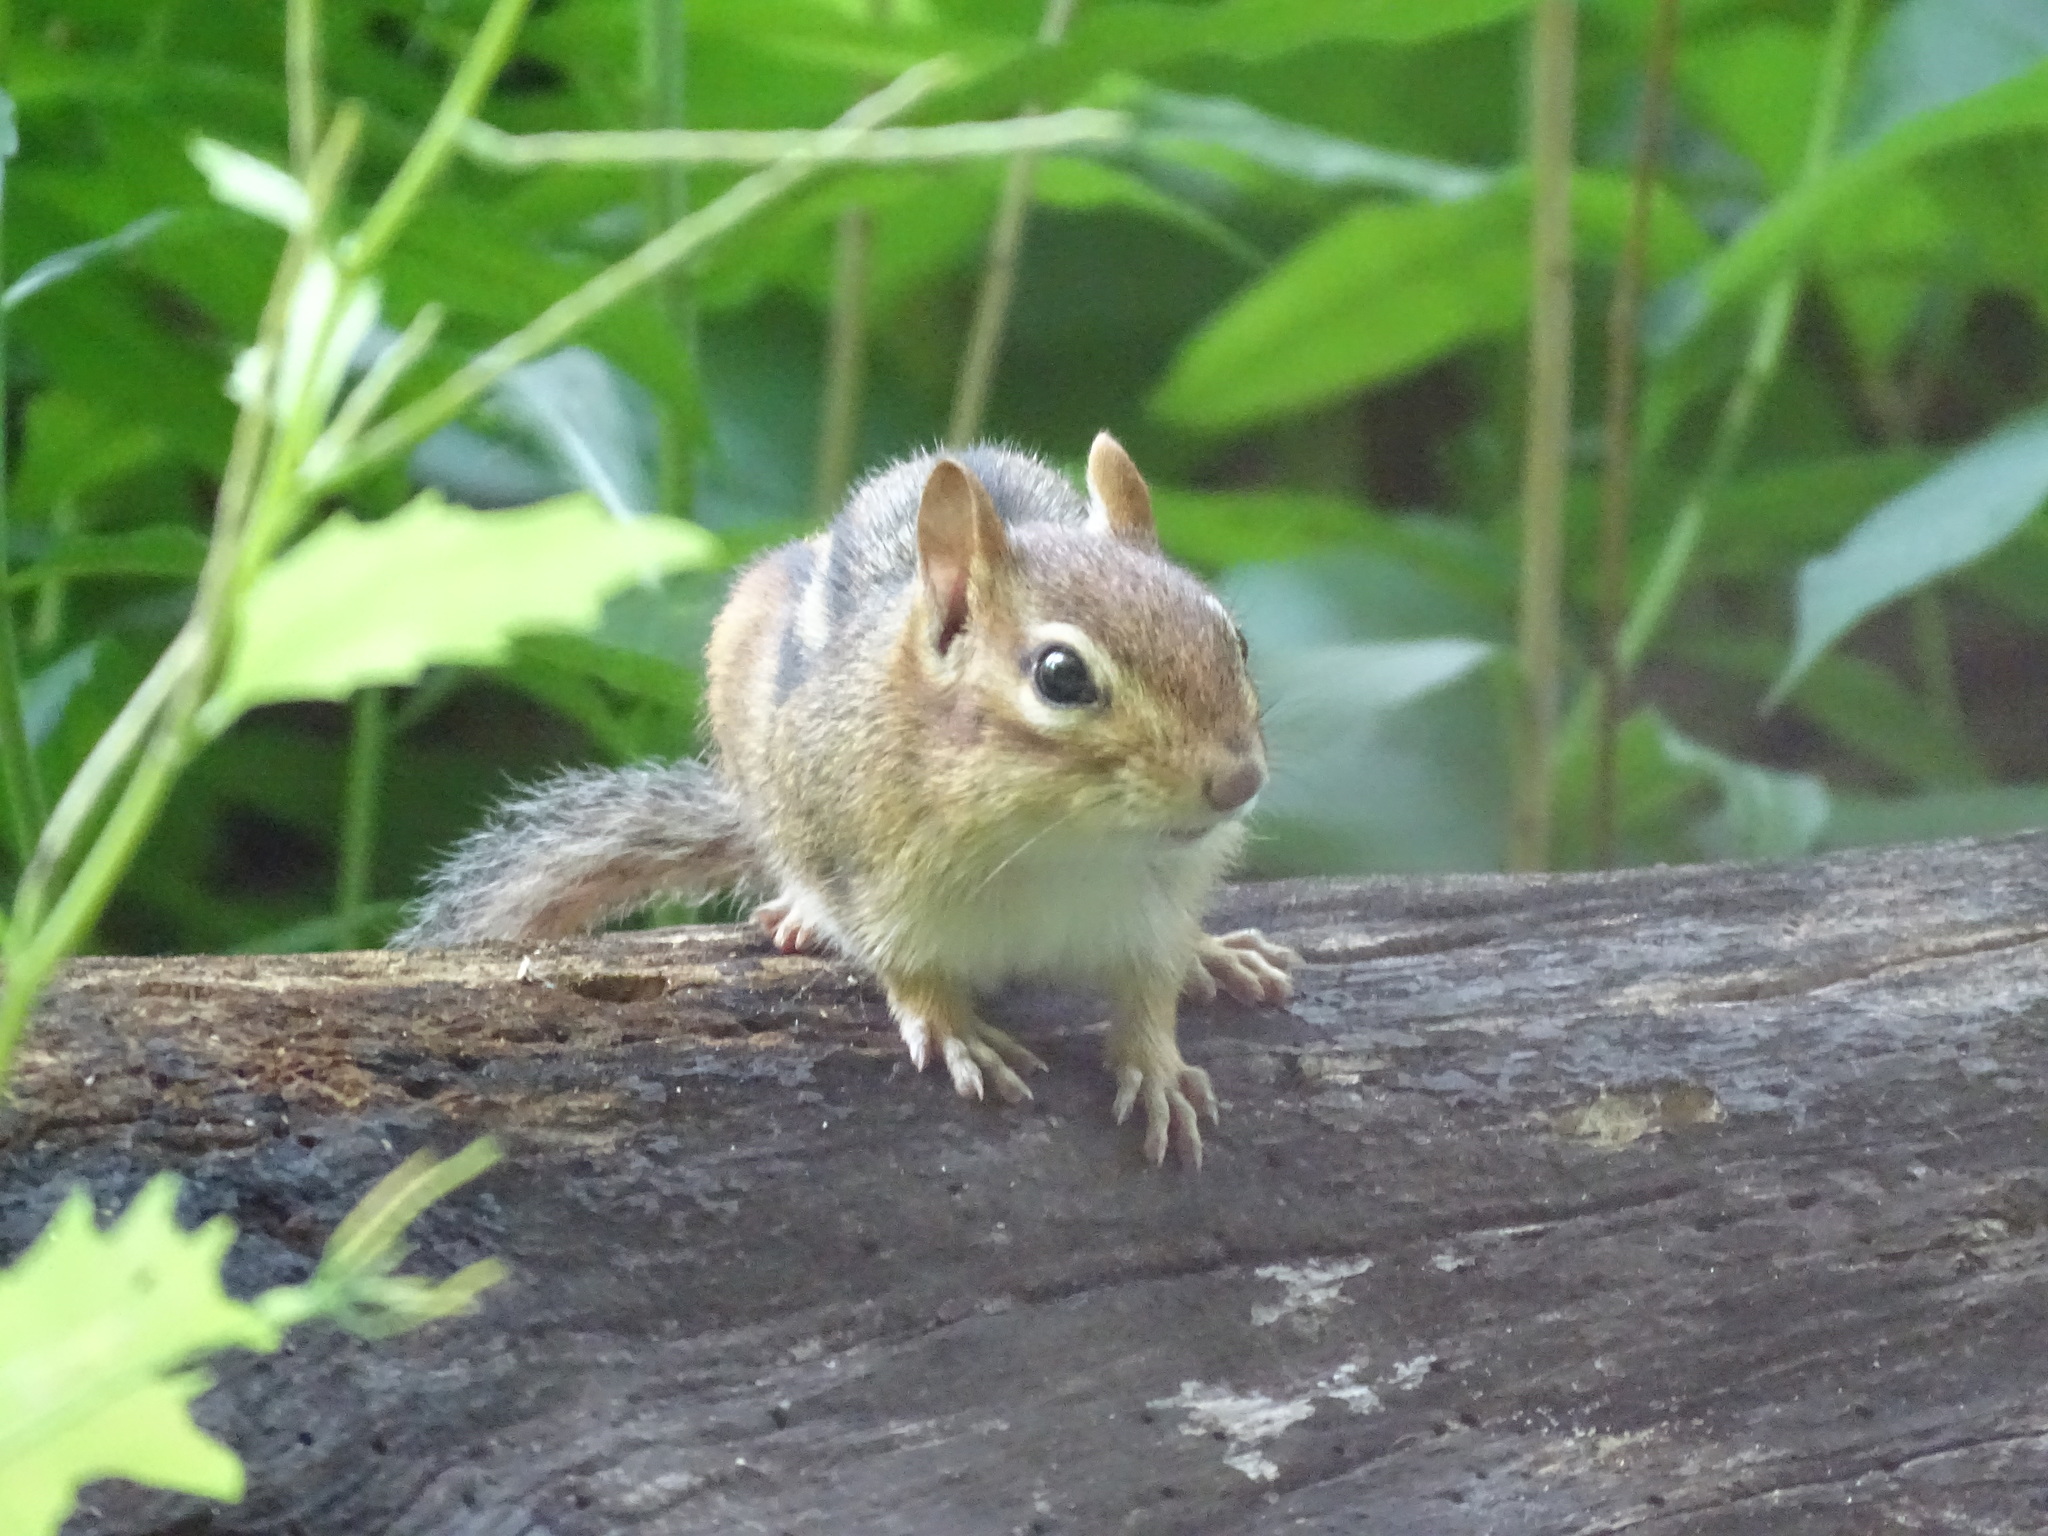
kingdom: Animalia
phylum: Chordata
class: Mammalia
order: Rodentia
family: Sciuridae
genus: Tamias
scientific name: Tamias striatus
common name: Eastern chipmunk
